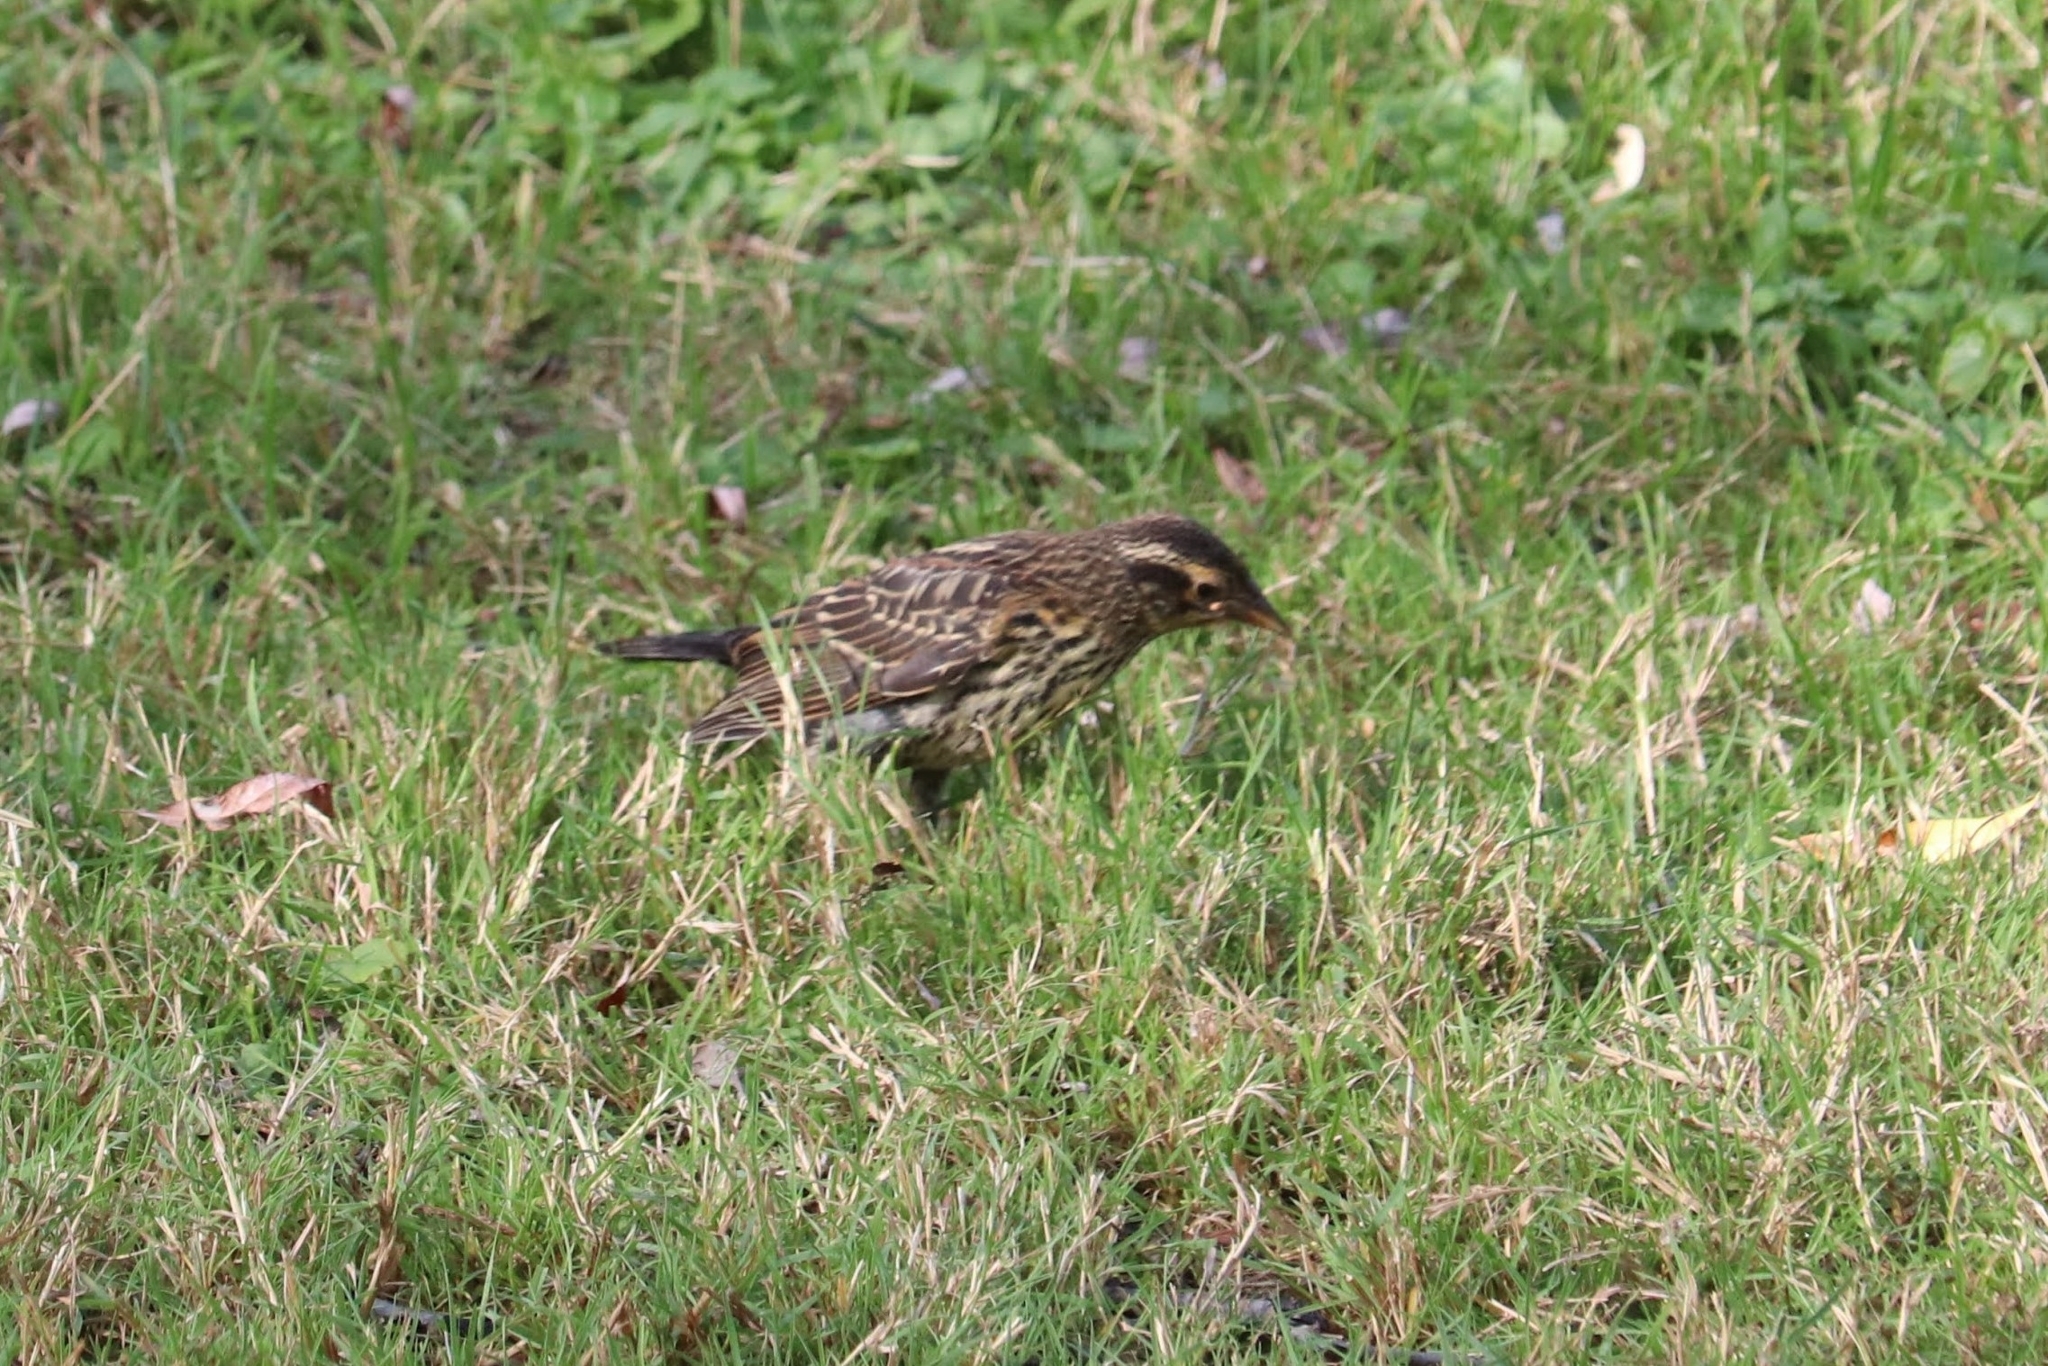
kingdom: Animalia
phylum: Chordata
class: Aves
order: Passeriformes
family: Icteridae
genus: Agelaius
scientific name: Agelaius phoeniceus
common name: Red-winged blackbird
